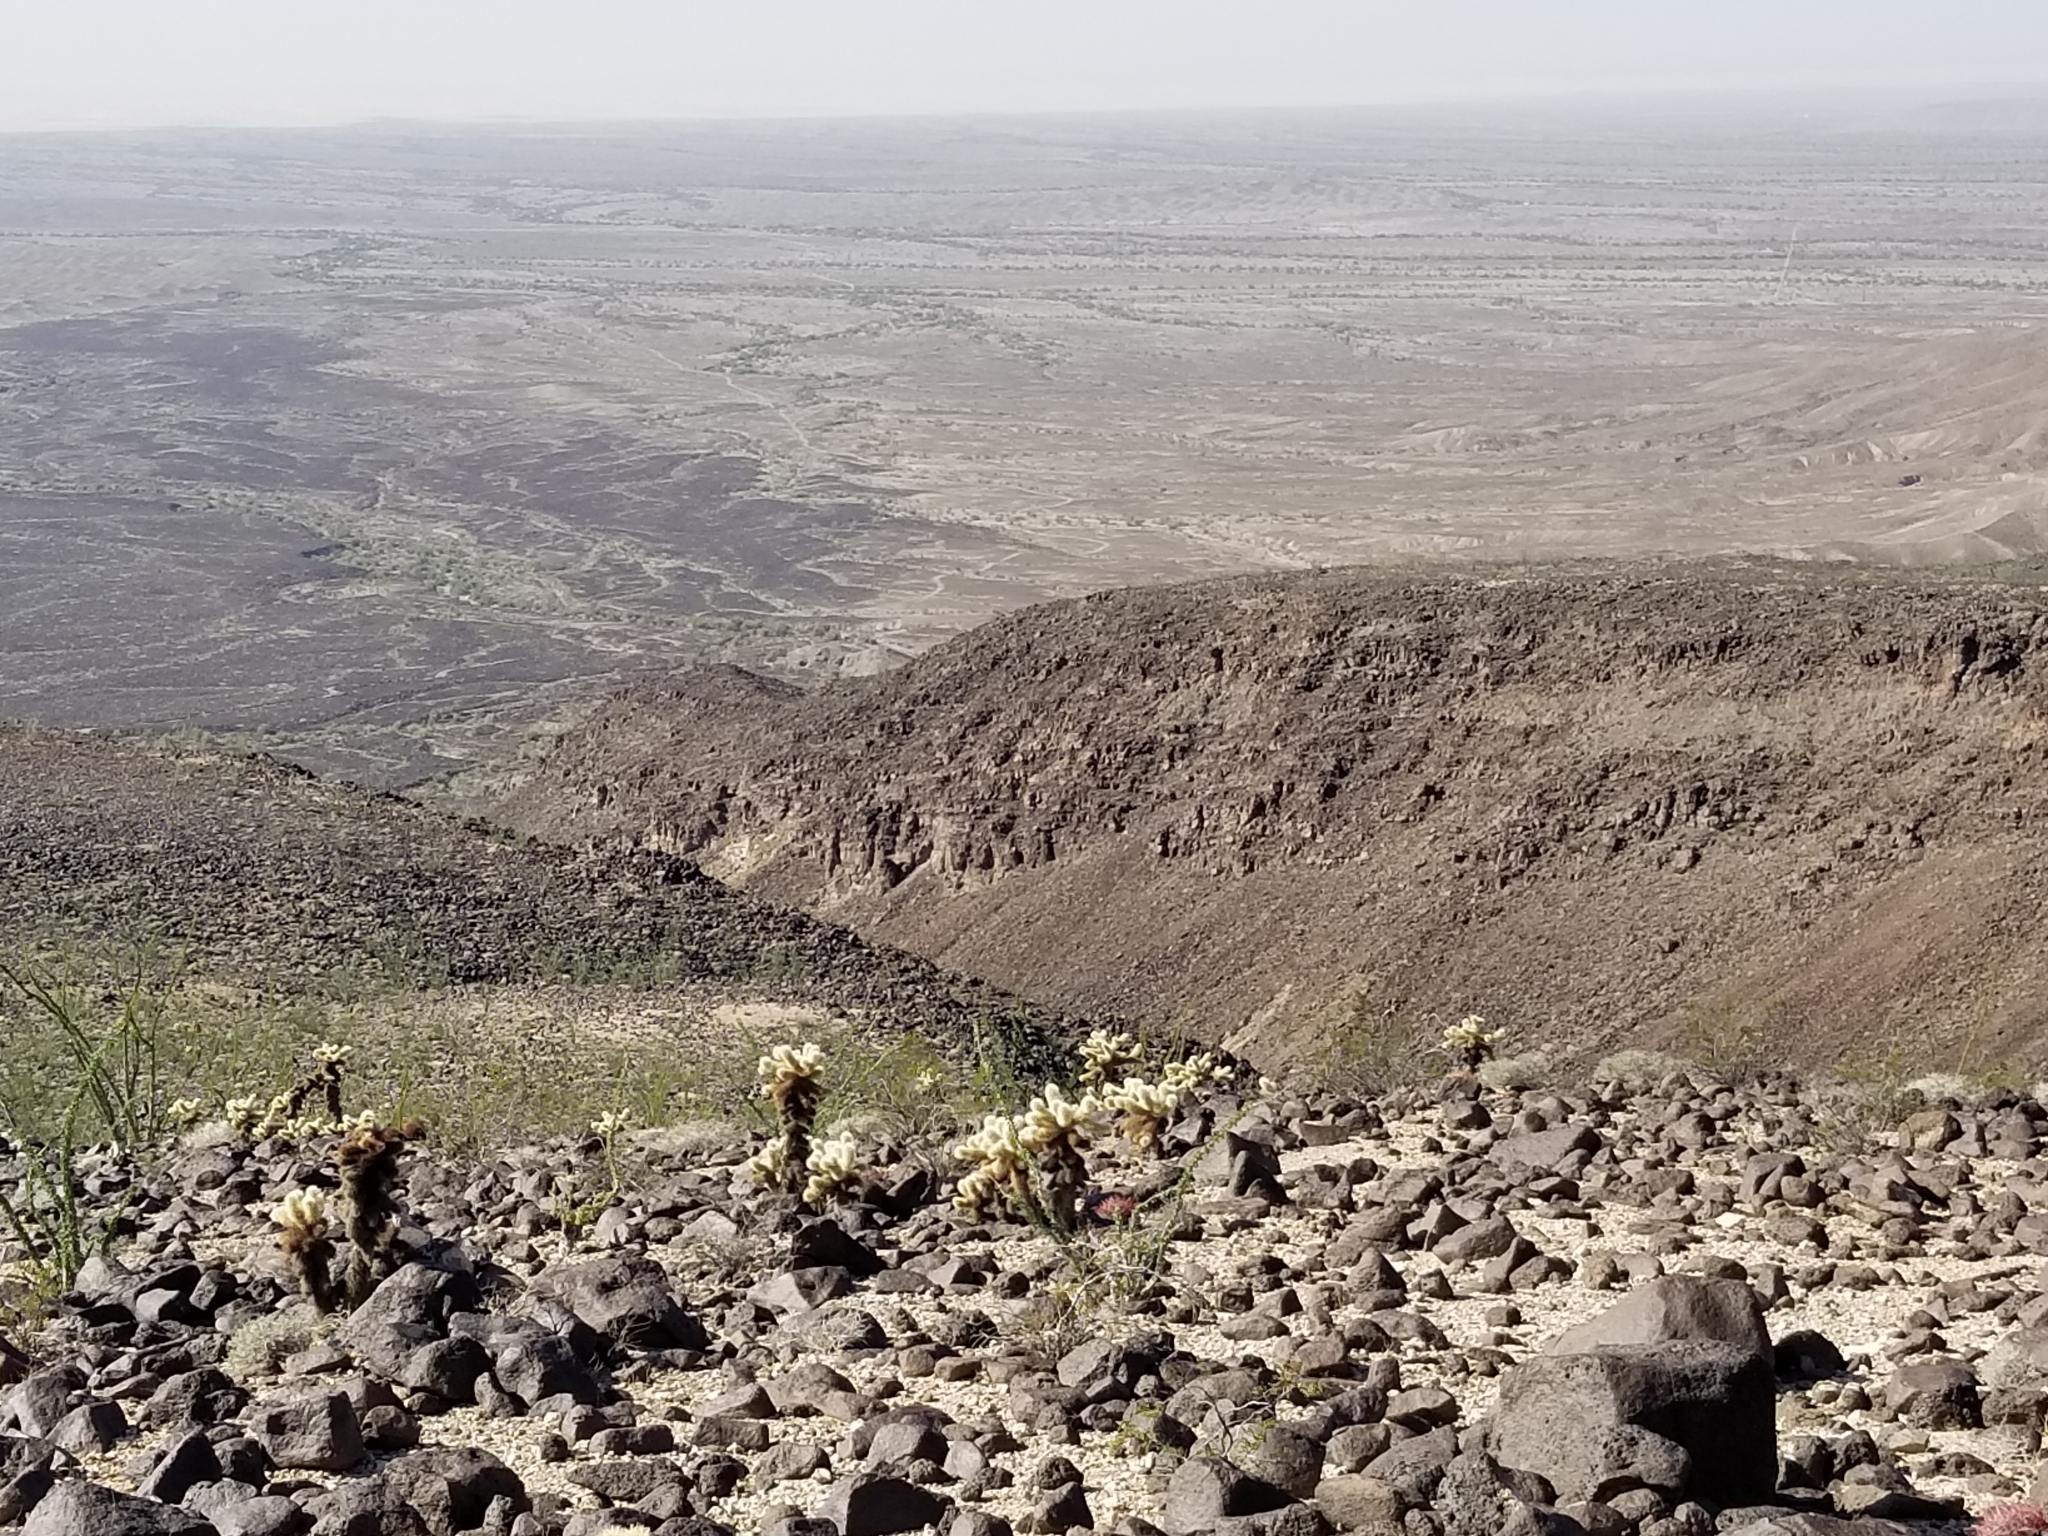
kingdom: Plantae
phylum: Tracheophyta
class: Magnoliopsida
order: Caryophyllales
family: Cactaceae
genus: Cylindropuntia
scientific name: Cylindropuntia fosbergii
